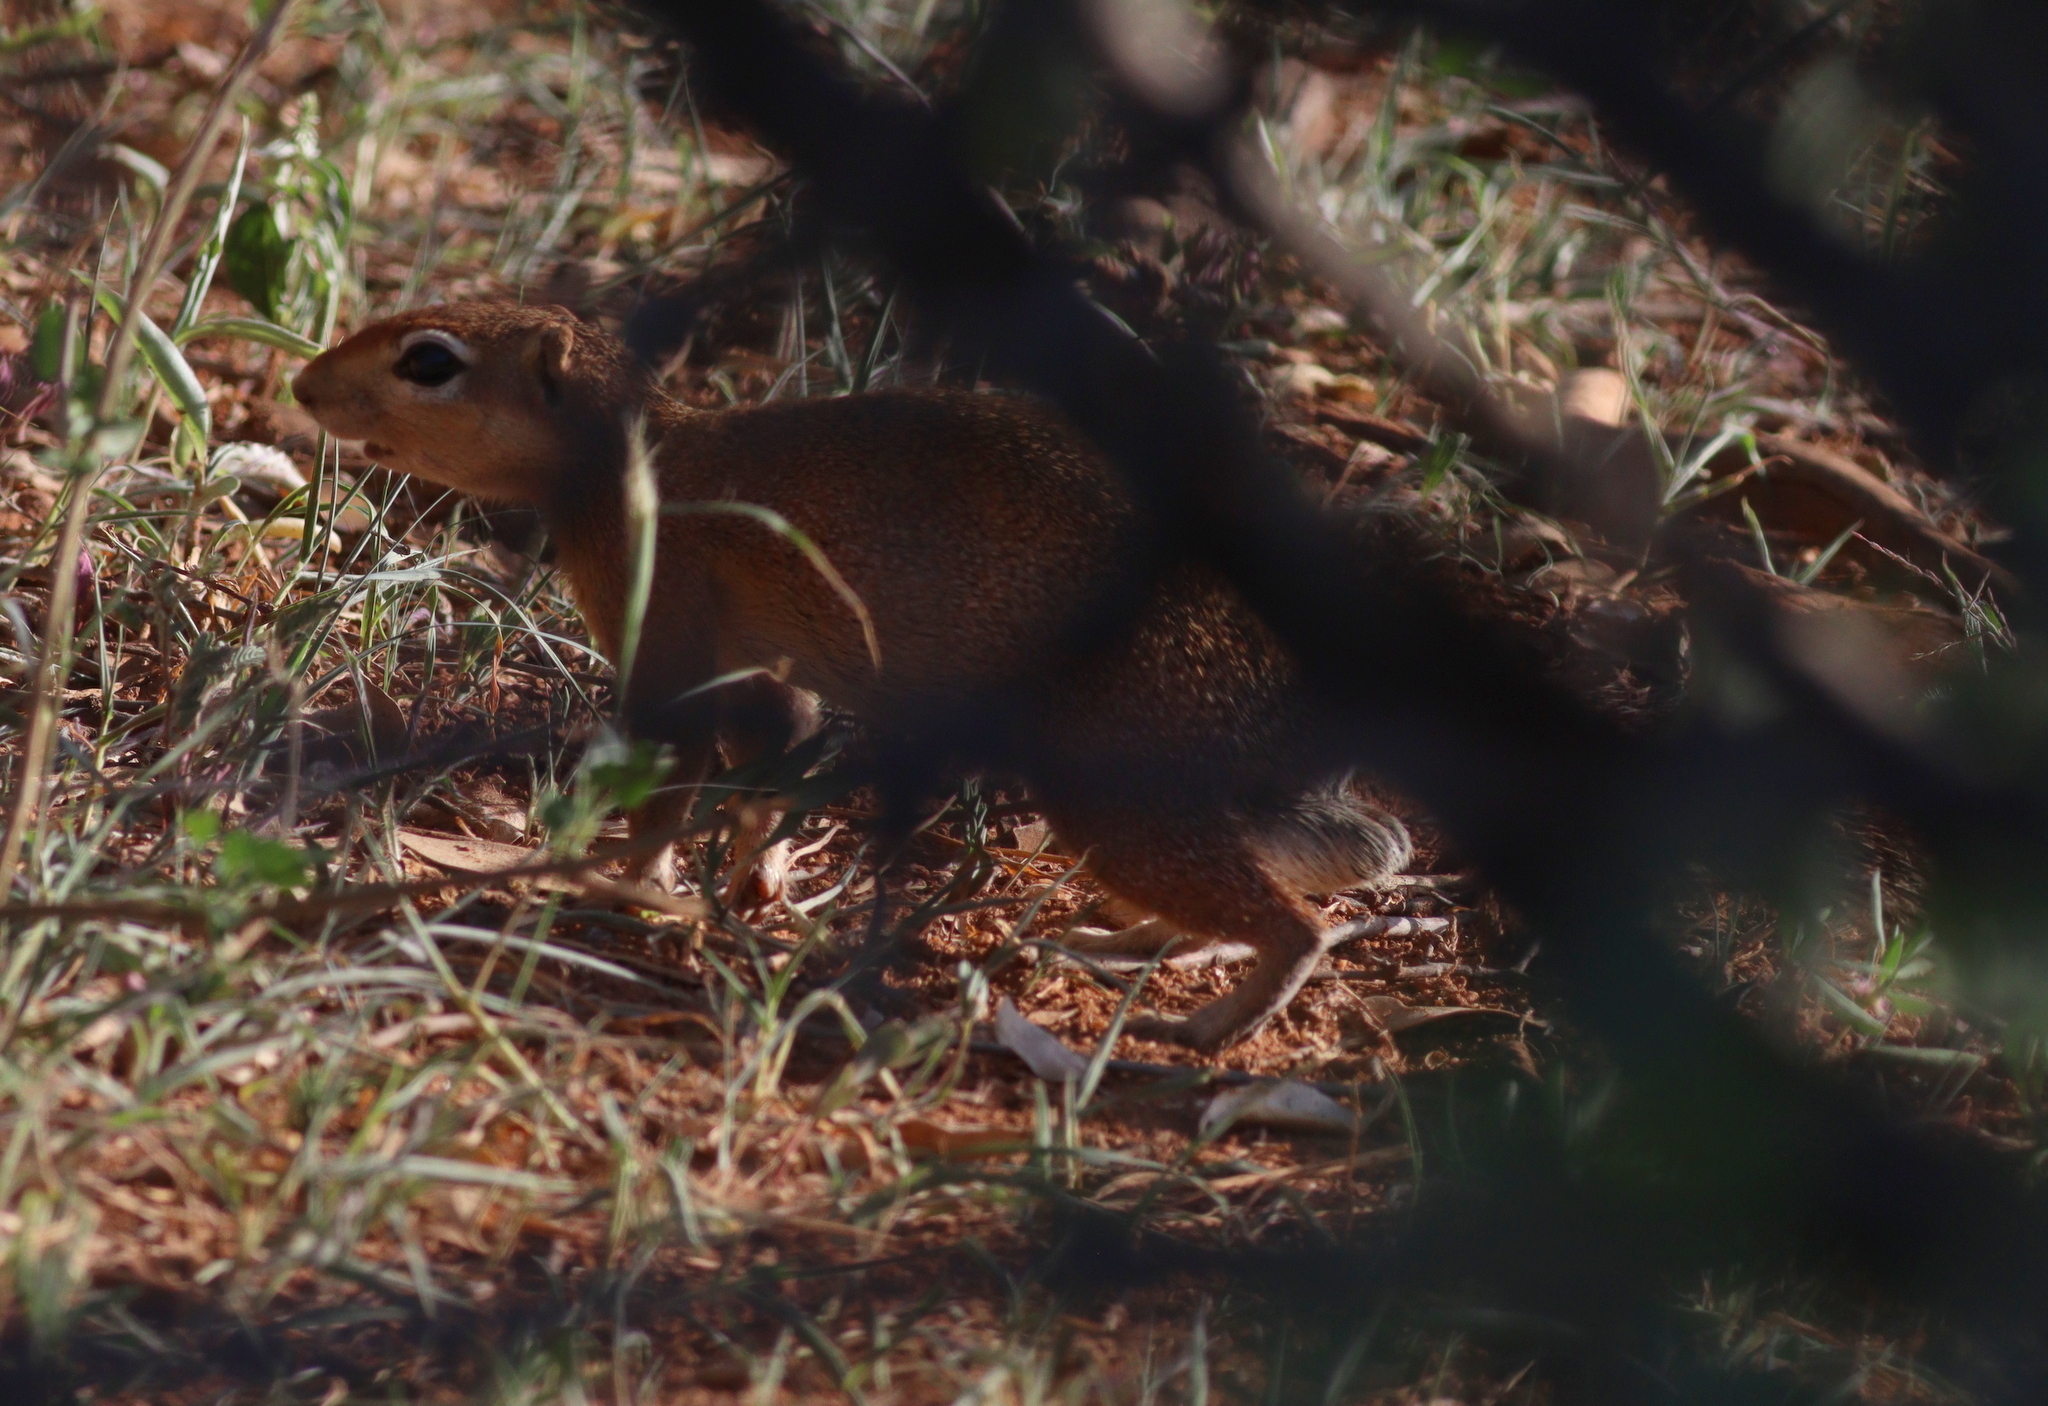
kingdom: Animalia
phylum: Chordata
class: Mammalia
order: Rodentia
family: Sciuridae
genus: Xerus
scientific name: Xerus rutilus
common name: Unstriped ground squirrel
